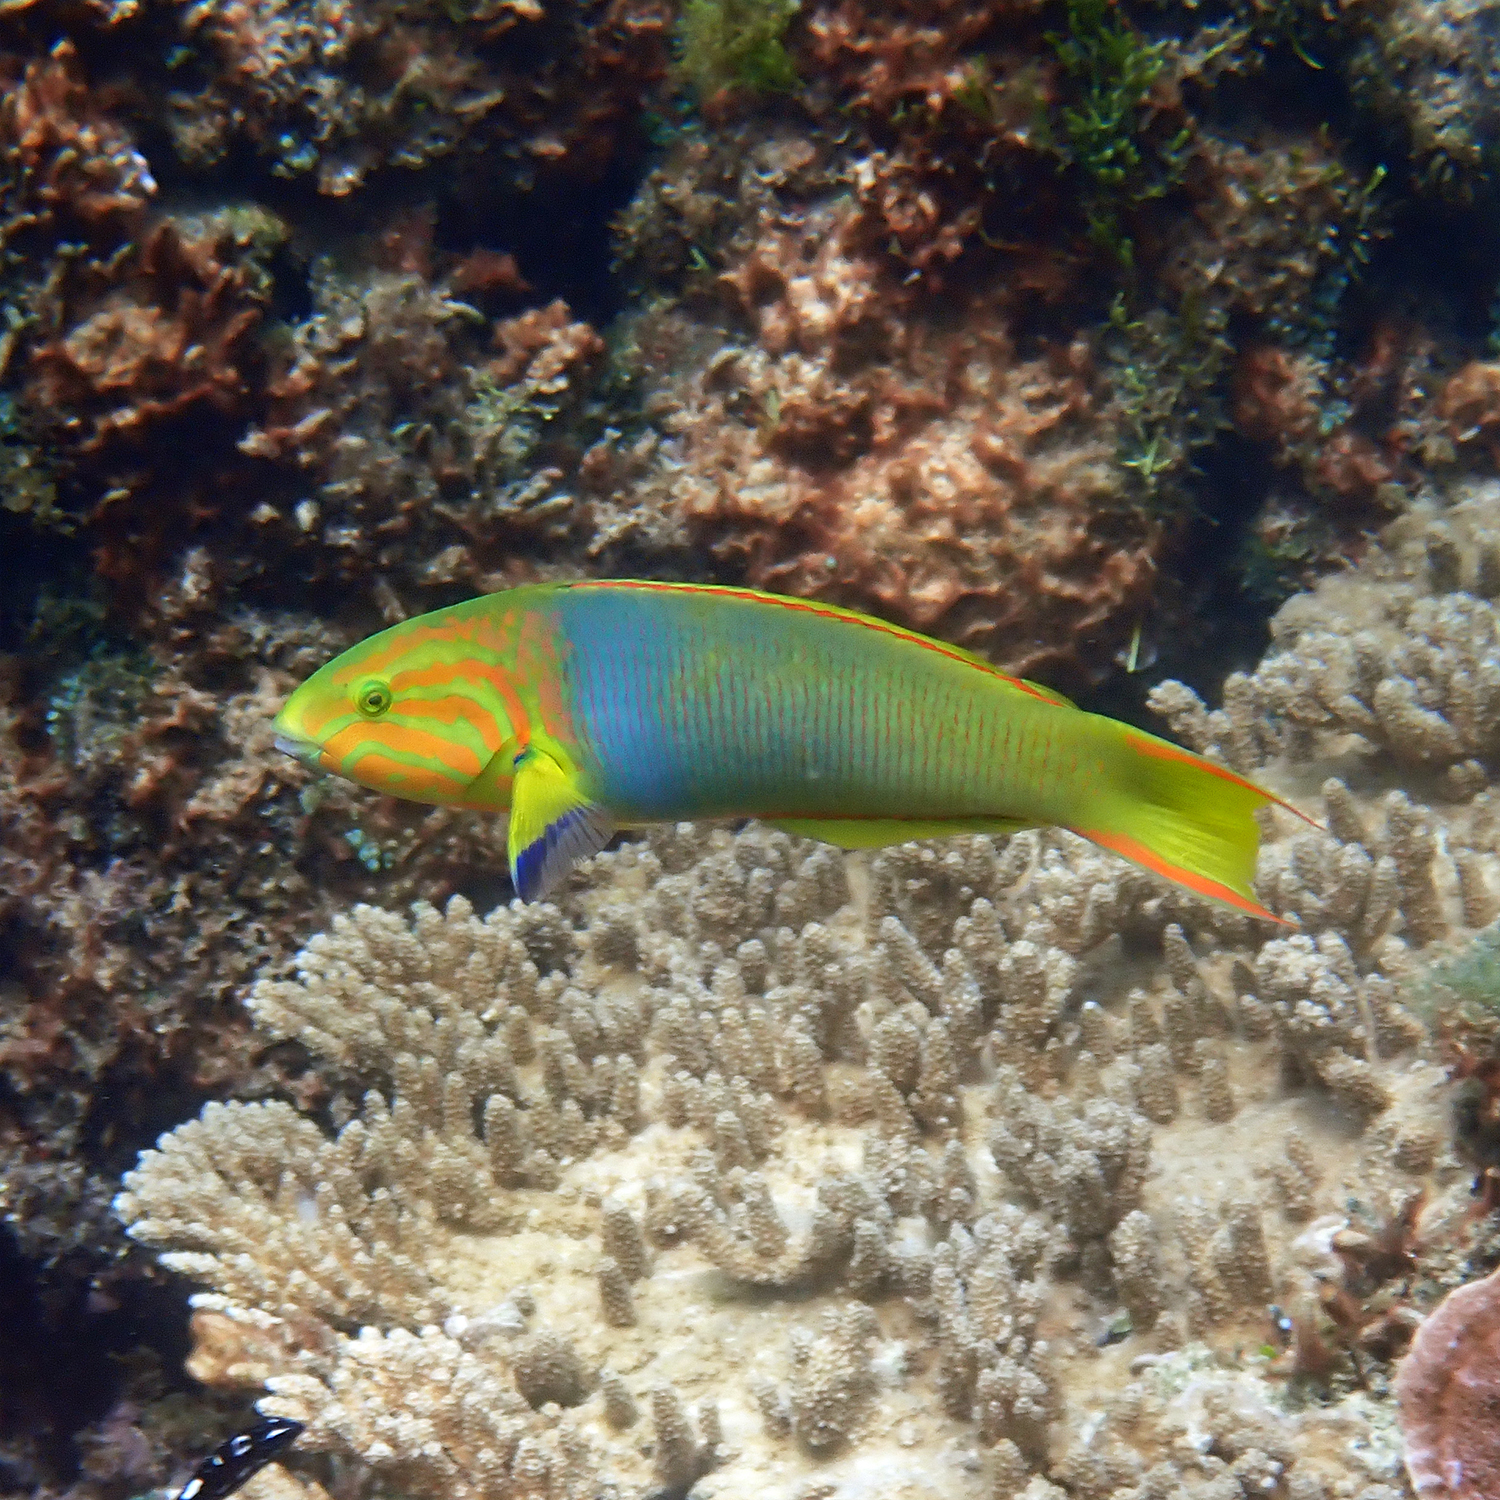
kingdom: Animalia
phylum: Chordata
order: Perciformes
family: Labridae
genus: Thalassoma
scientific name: Thalassoma lutescens
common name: Green moon wrasse
